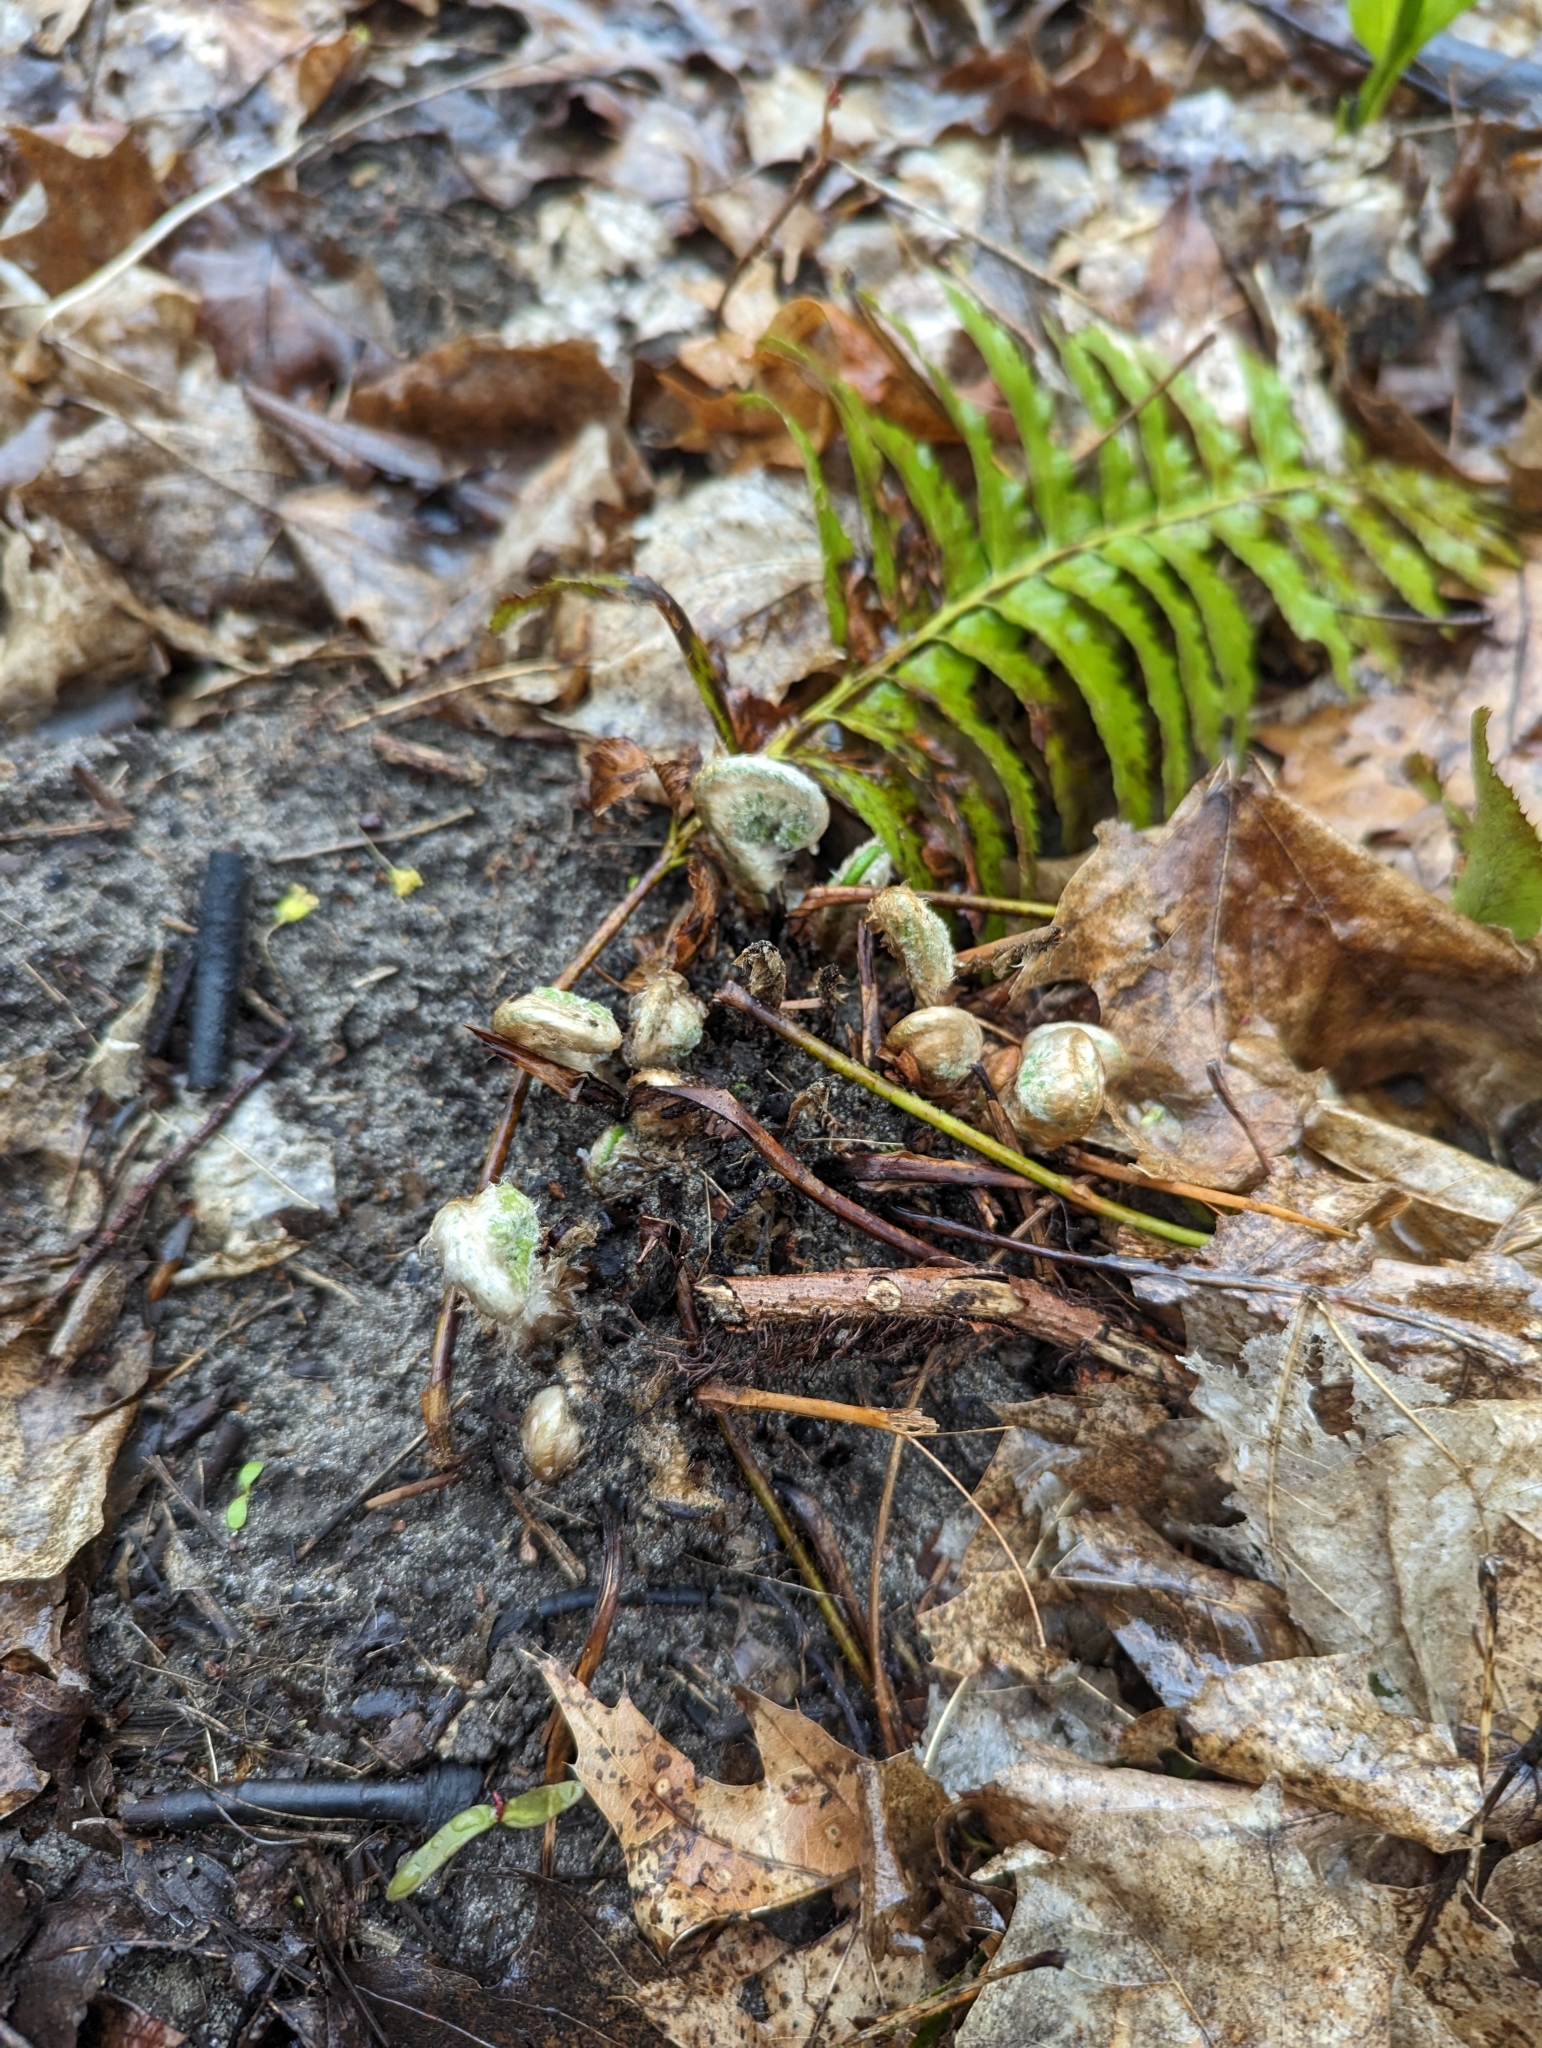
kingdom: Plantae
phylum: Tracheophyta
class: Polypodiopsida
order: Polypodiales
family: Dryopteridaceae
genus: Polystichum
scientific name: Polystichum acrostichoides
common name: Christmas fern
